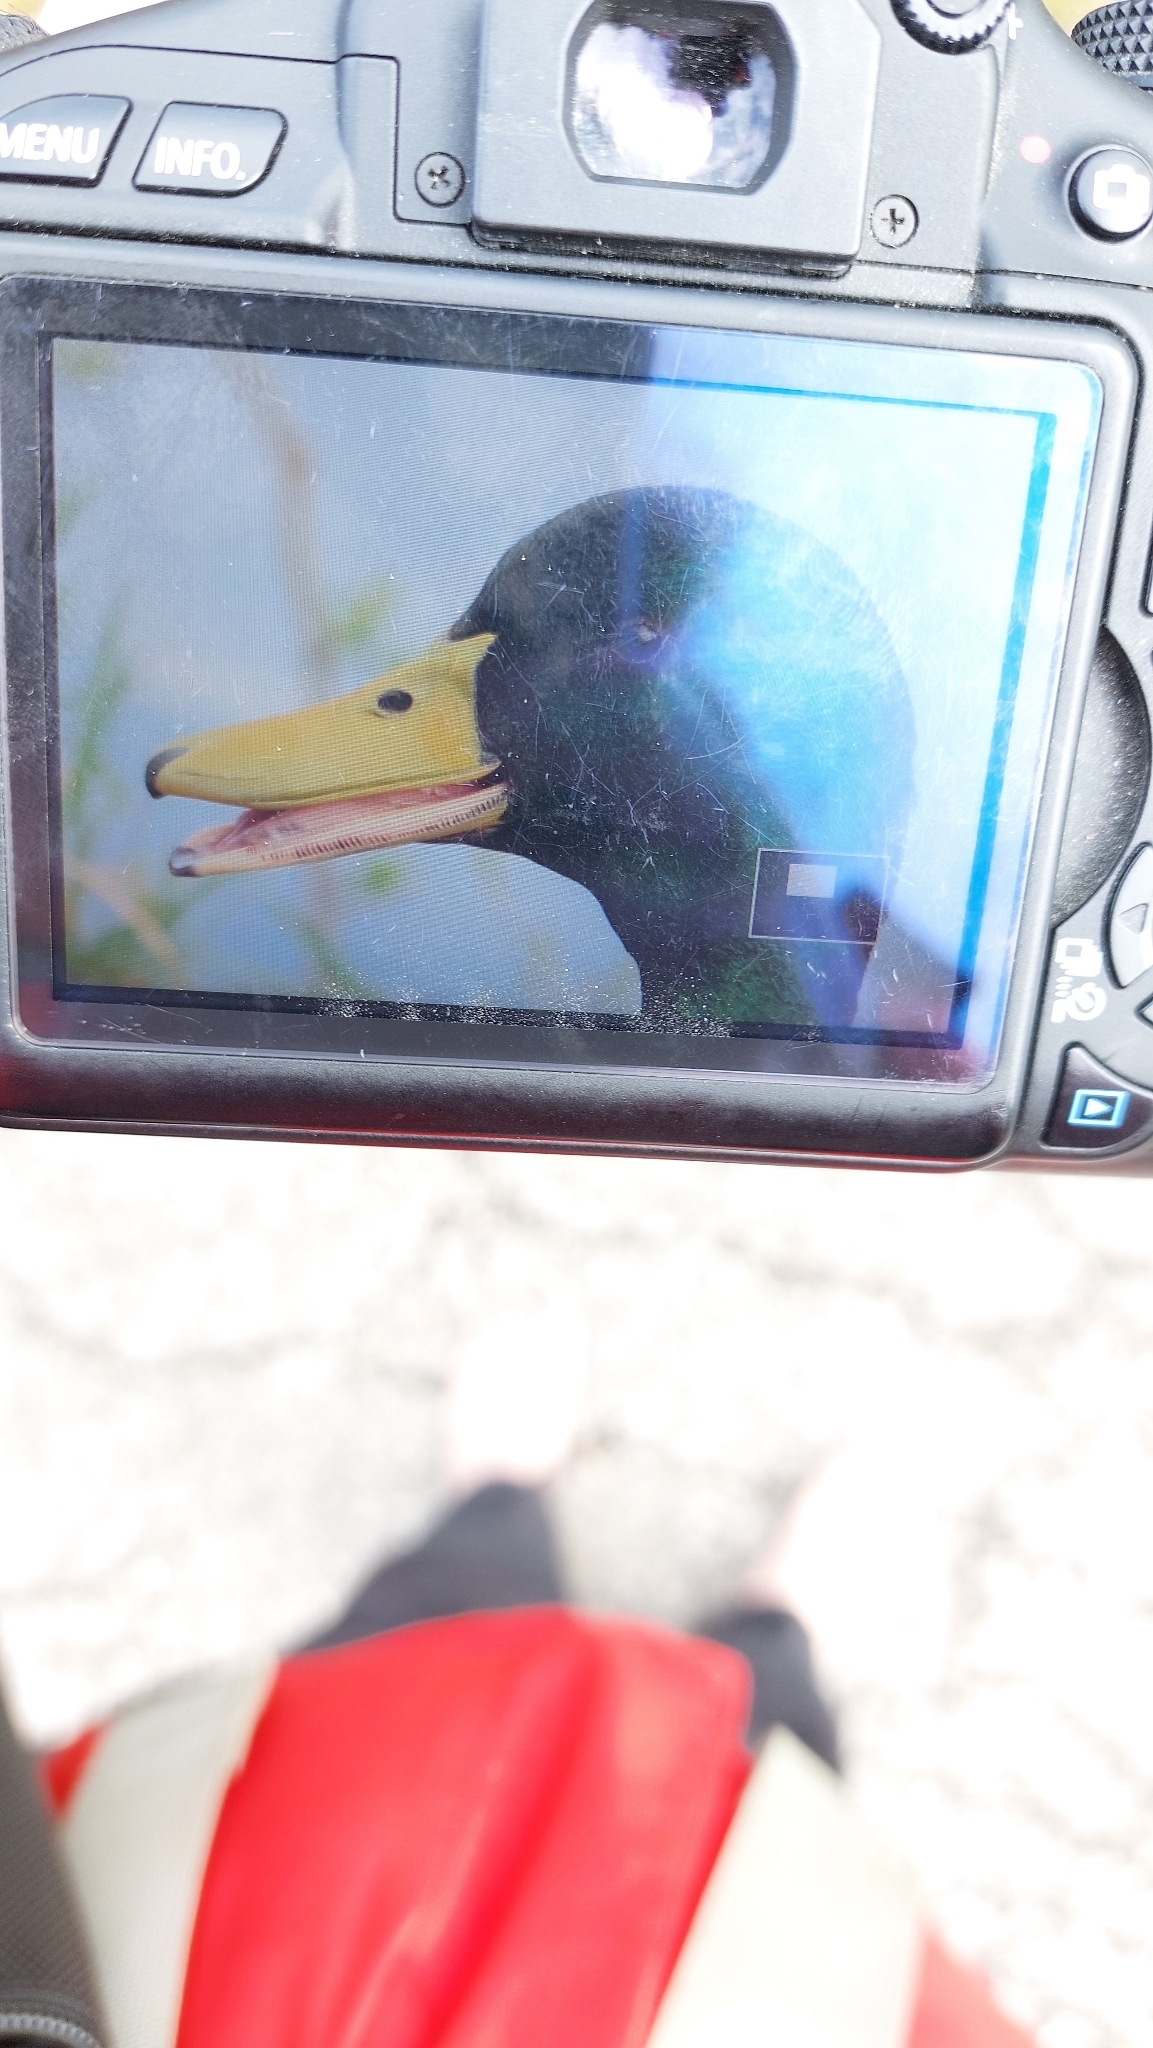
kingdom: Animalia
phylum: Chordata
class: Aves
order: Anseriformes
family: Anatidae
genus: Anas
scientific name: Anas platyrhynchos
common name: Mallard
